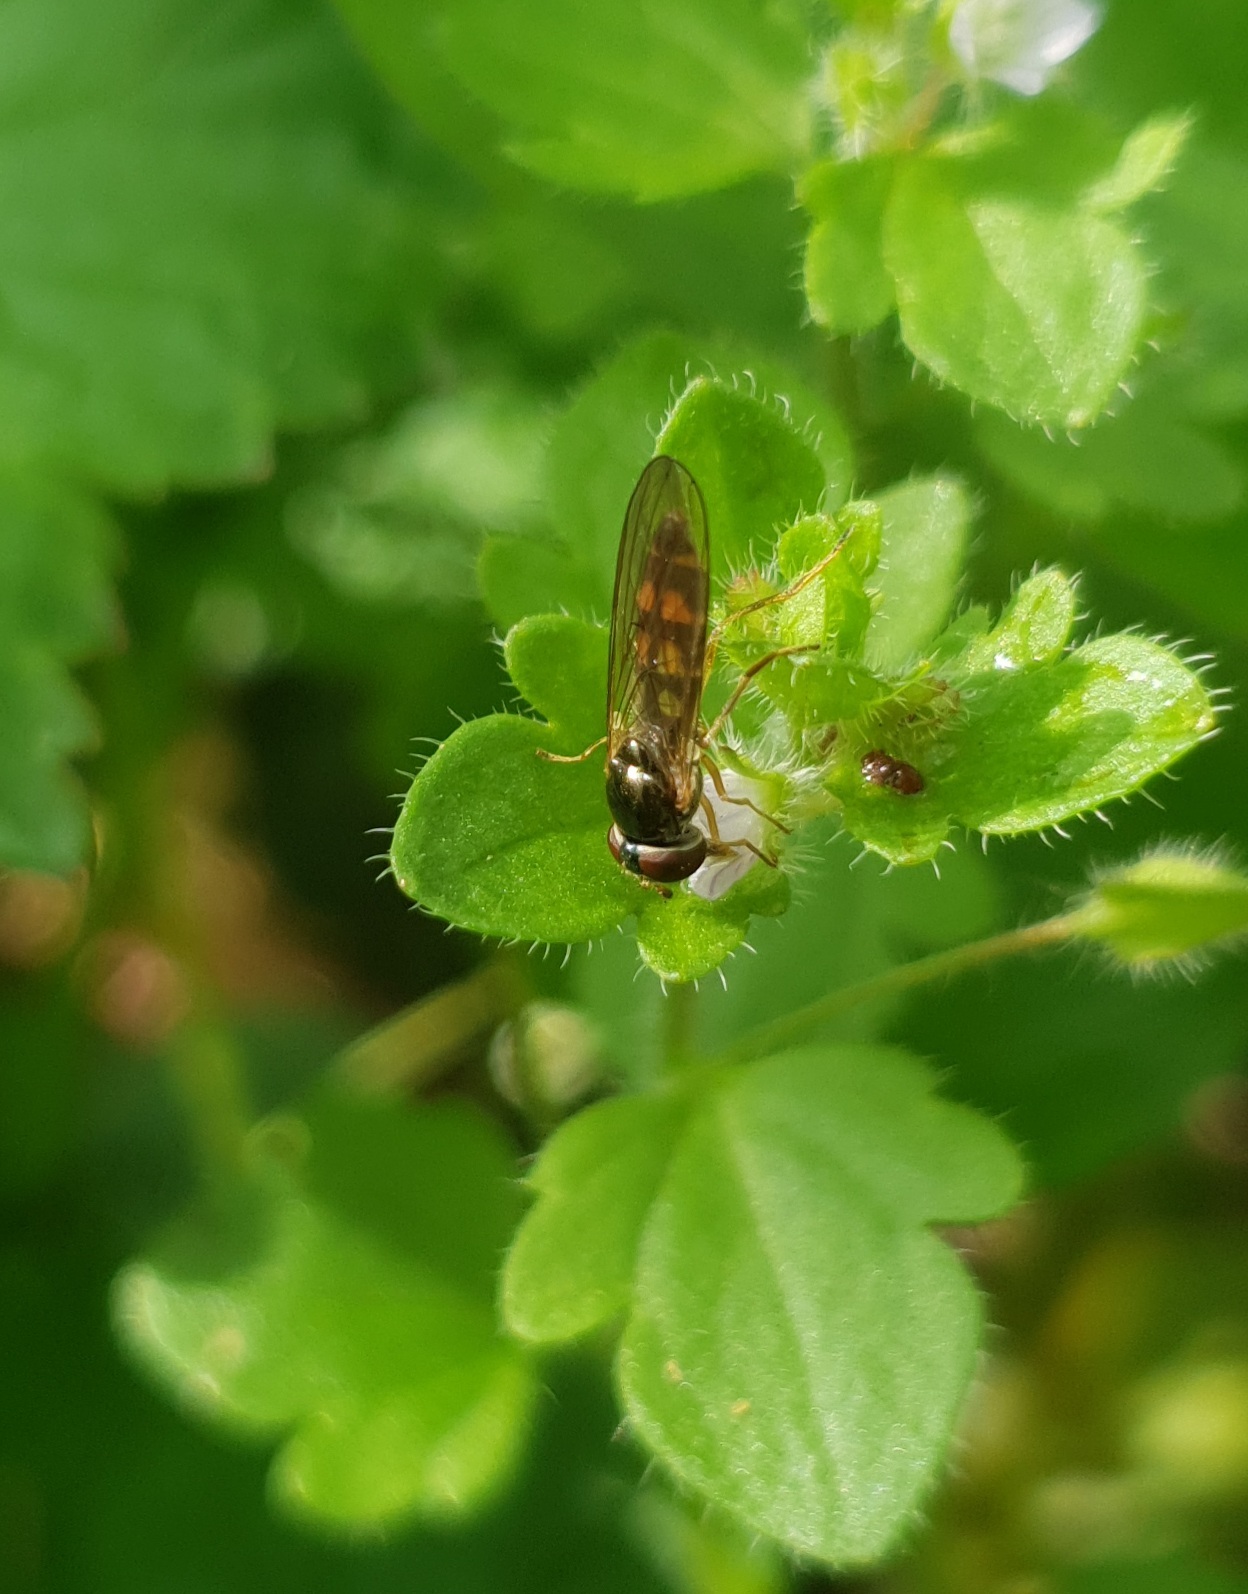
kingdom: Animalia
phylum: Arthropoda
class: Insecta
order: Diptera
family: Syrphidae
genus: Melanostoma
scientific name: Melanostoma
